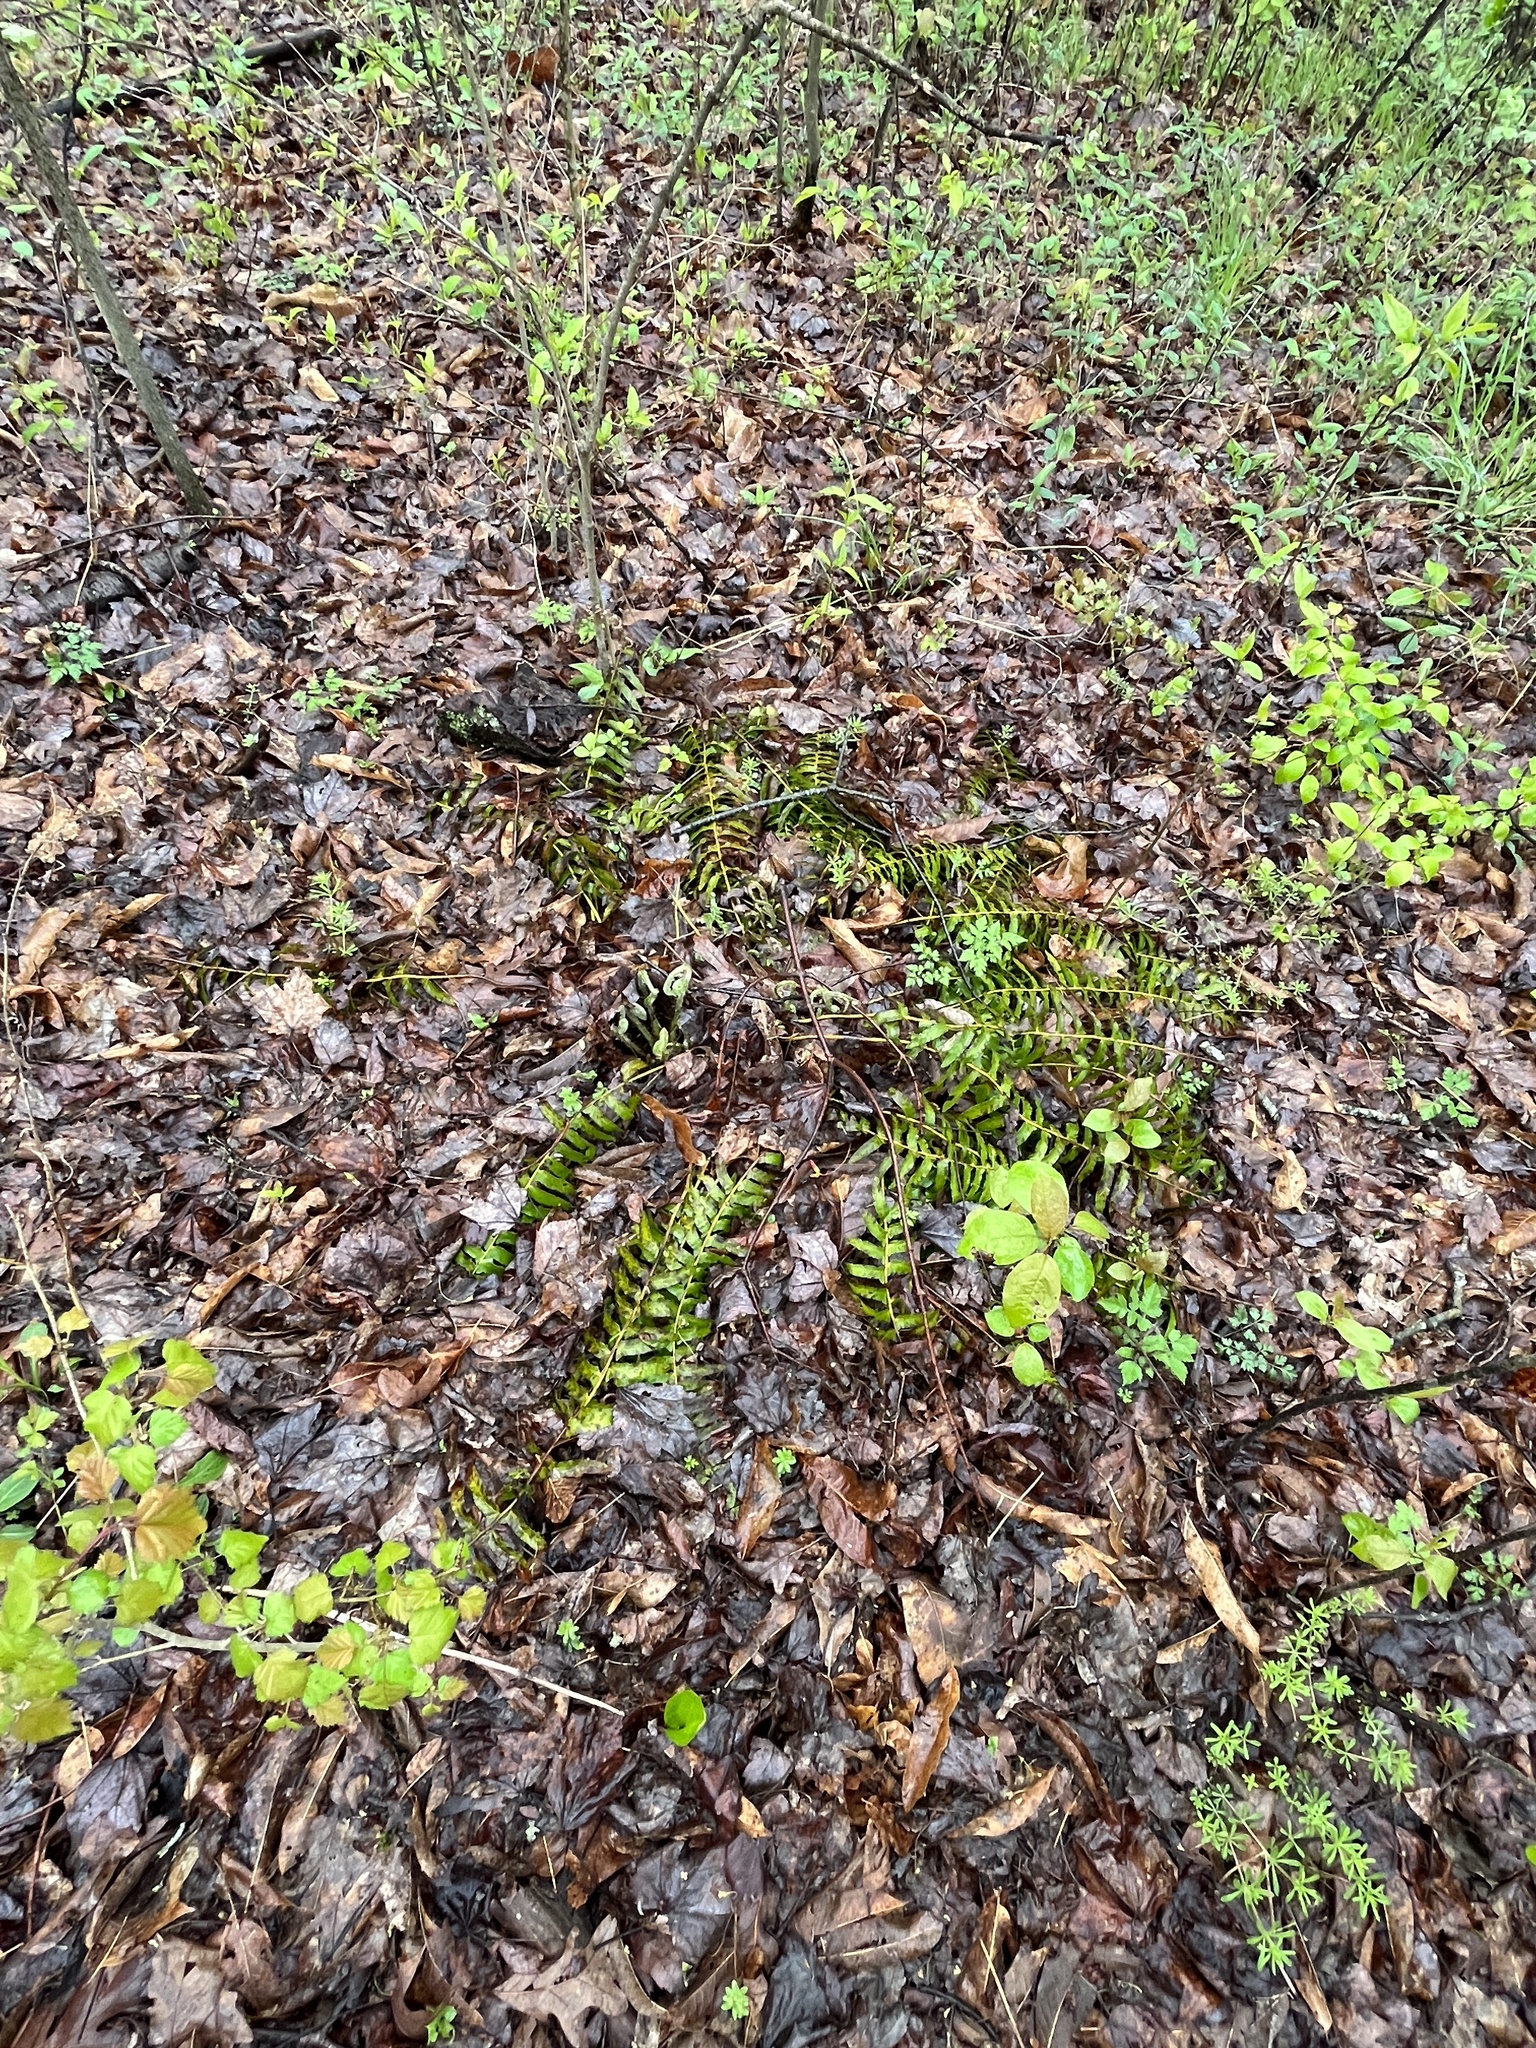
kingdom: Plantae
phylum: Tracheophyta
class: Polypodiopsida
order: Polypodiales
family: Dryopteridaceae
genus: Polystichum
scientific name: Polystichum acrostichoides
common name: Christmas fern
